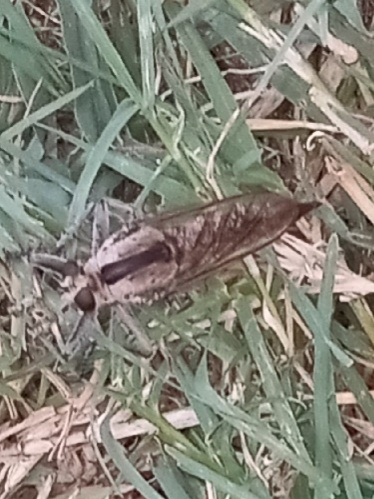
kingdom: Animalia
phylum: Arthropoda
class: Insecta
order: Diptera
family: Asilidae
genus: Triorla
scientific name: Triorla interrupta
